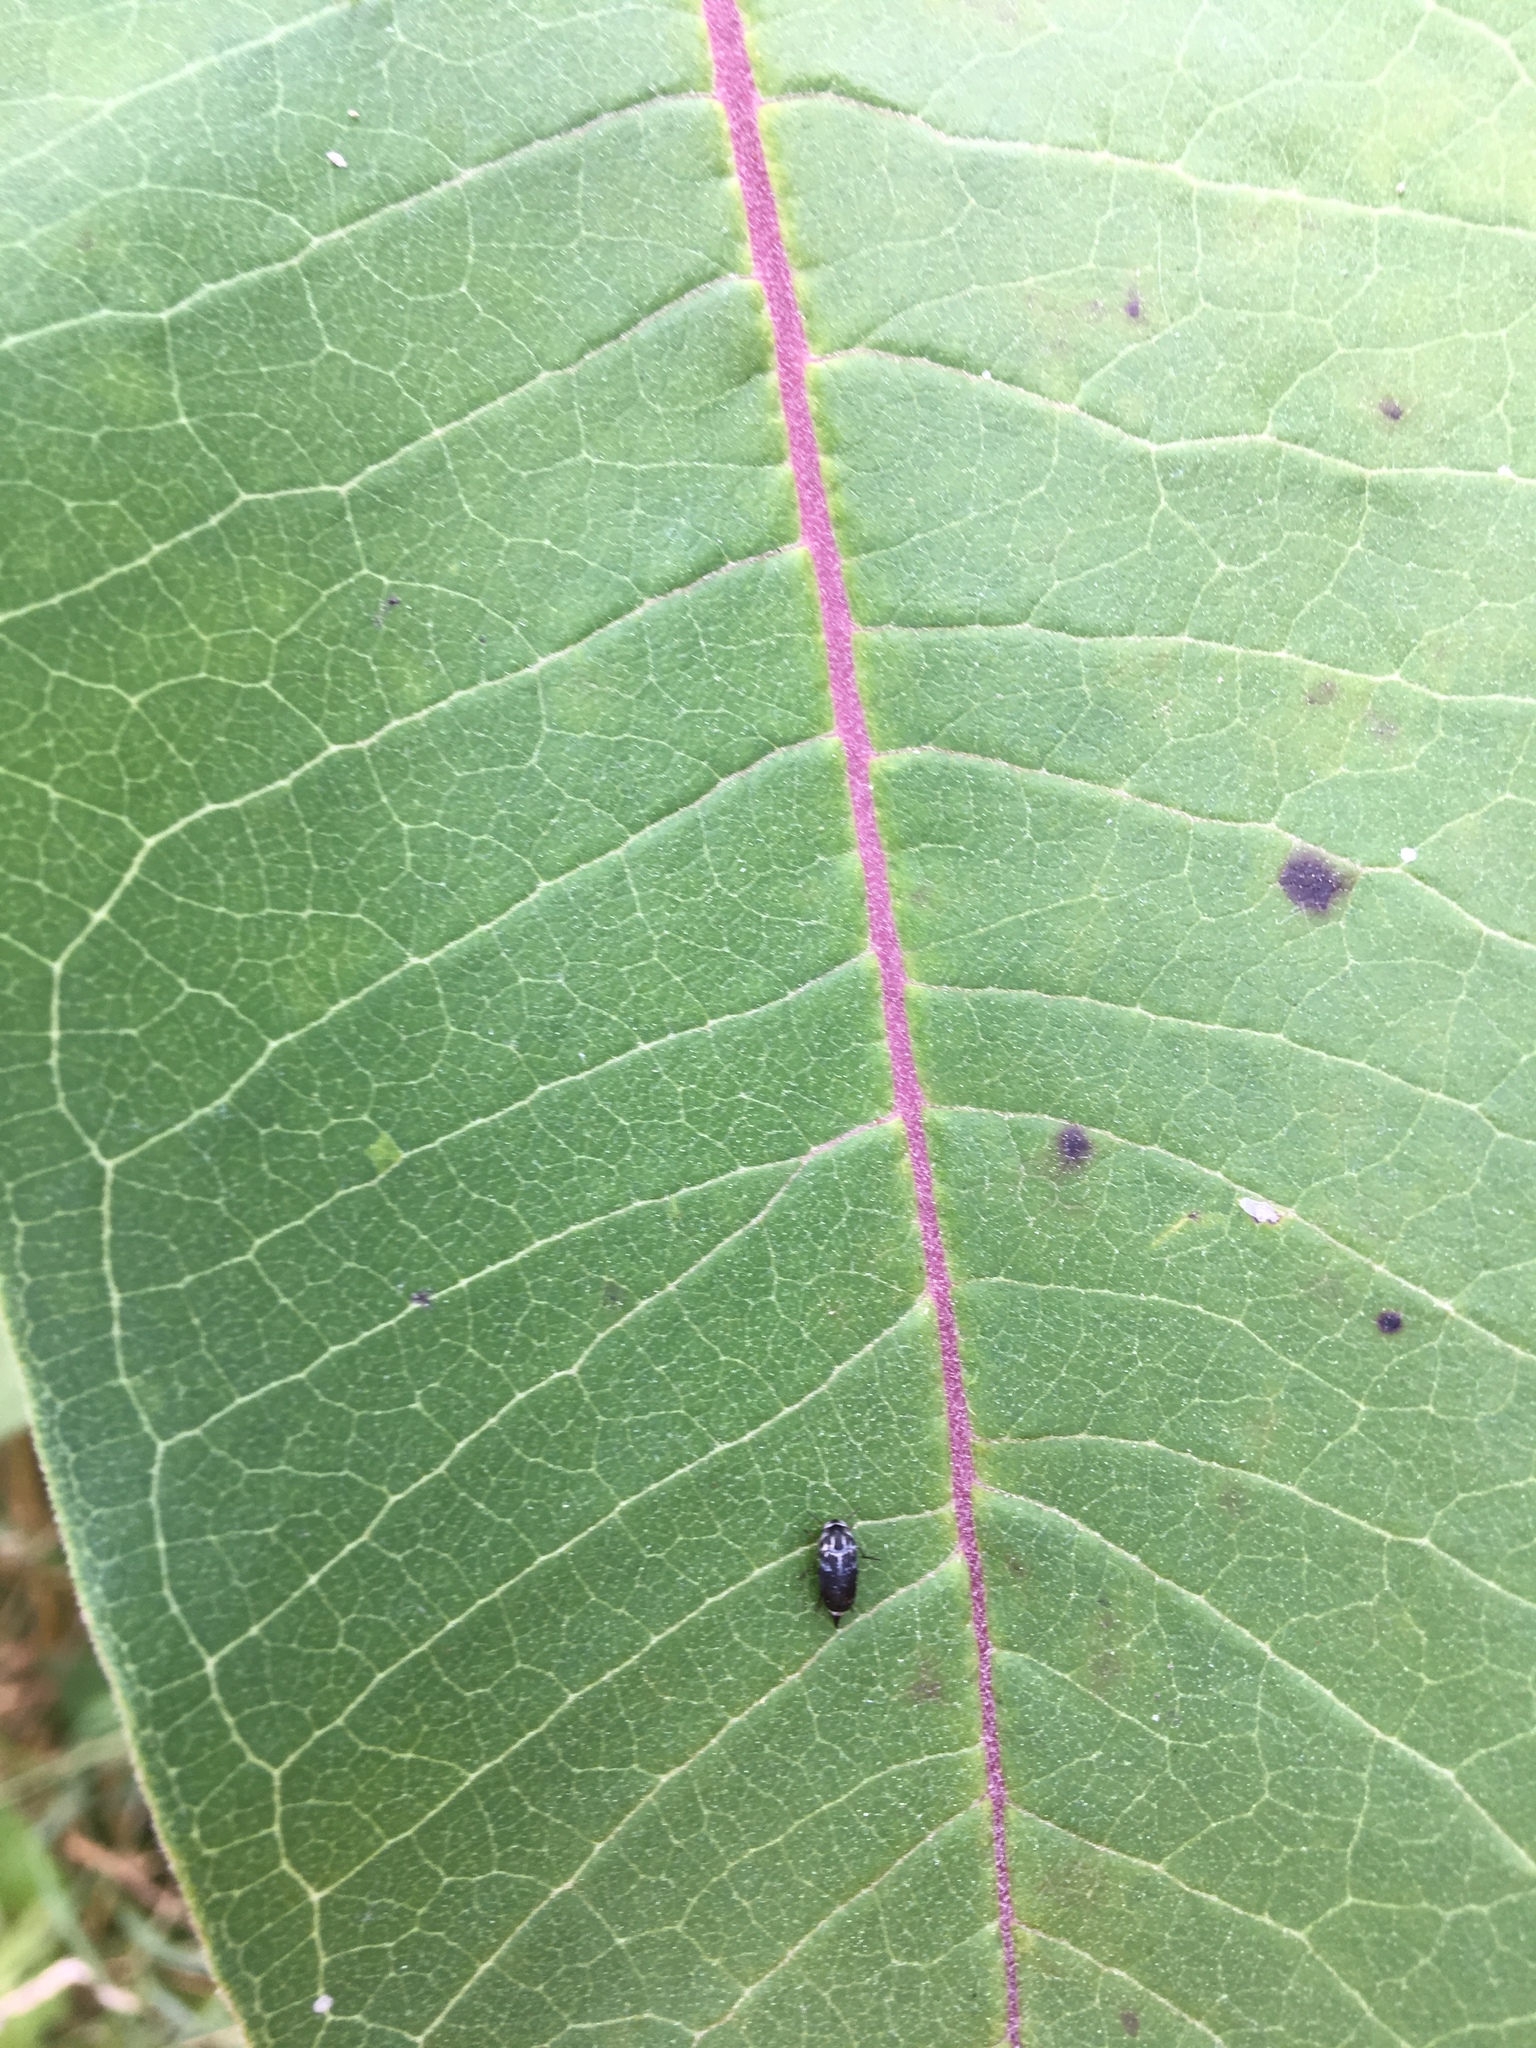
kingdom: Animalia
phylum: Arthropoda
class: Insecta
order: Coleoptera
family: Mordellidae
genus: Mordella
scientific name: Mordella marginata
